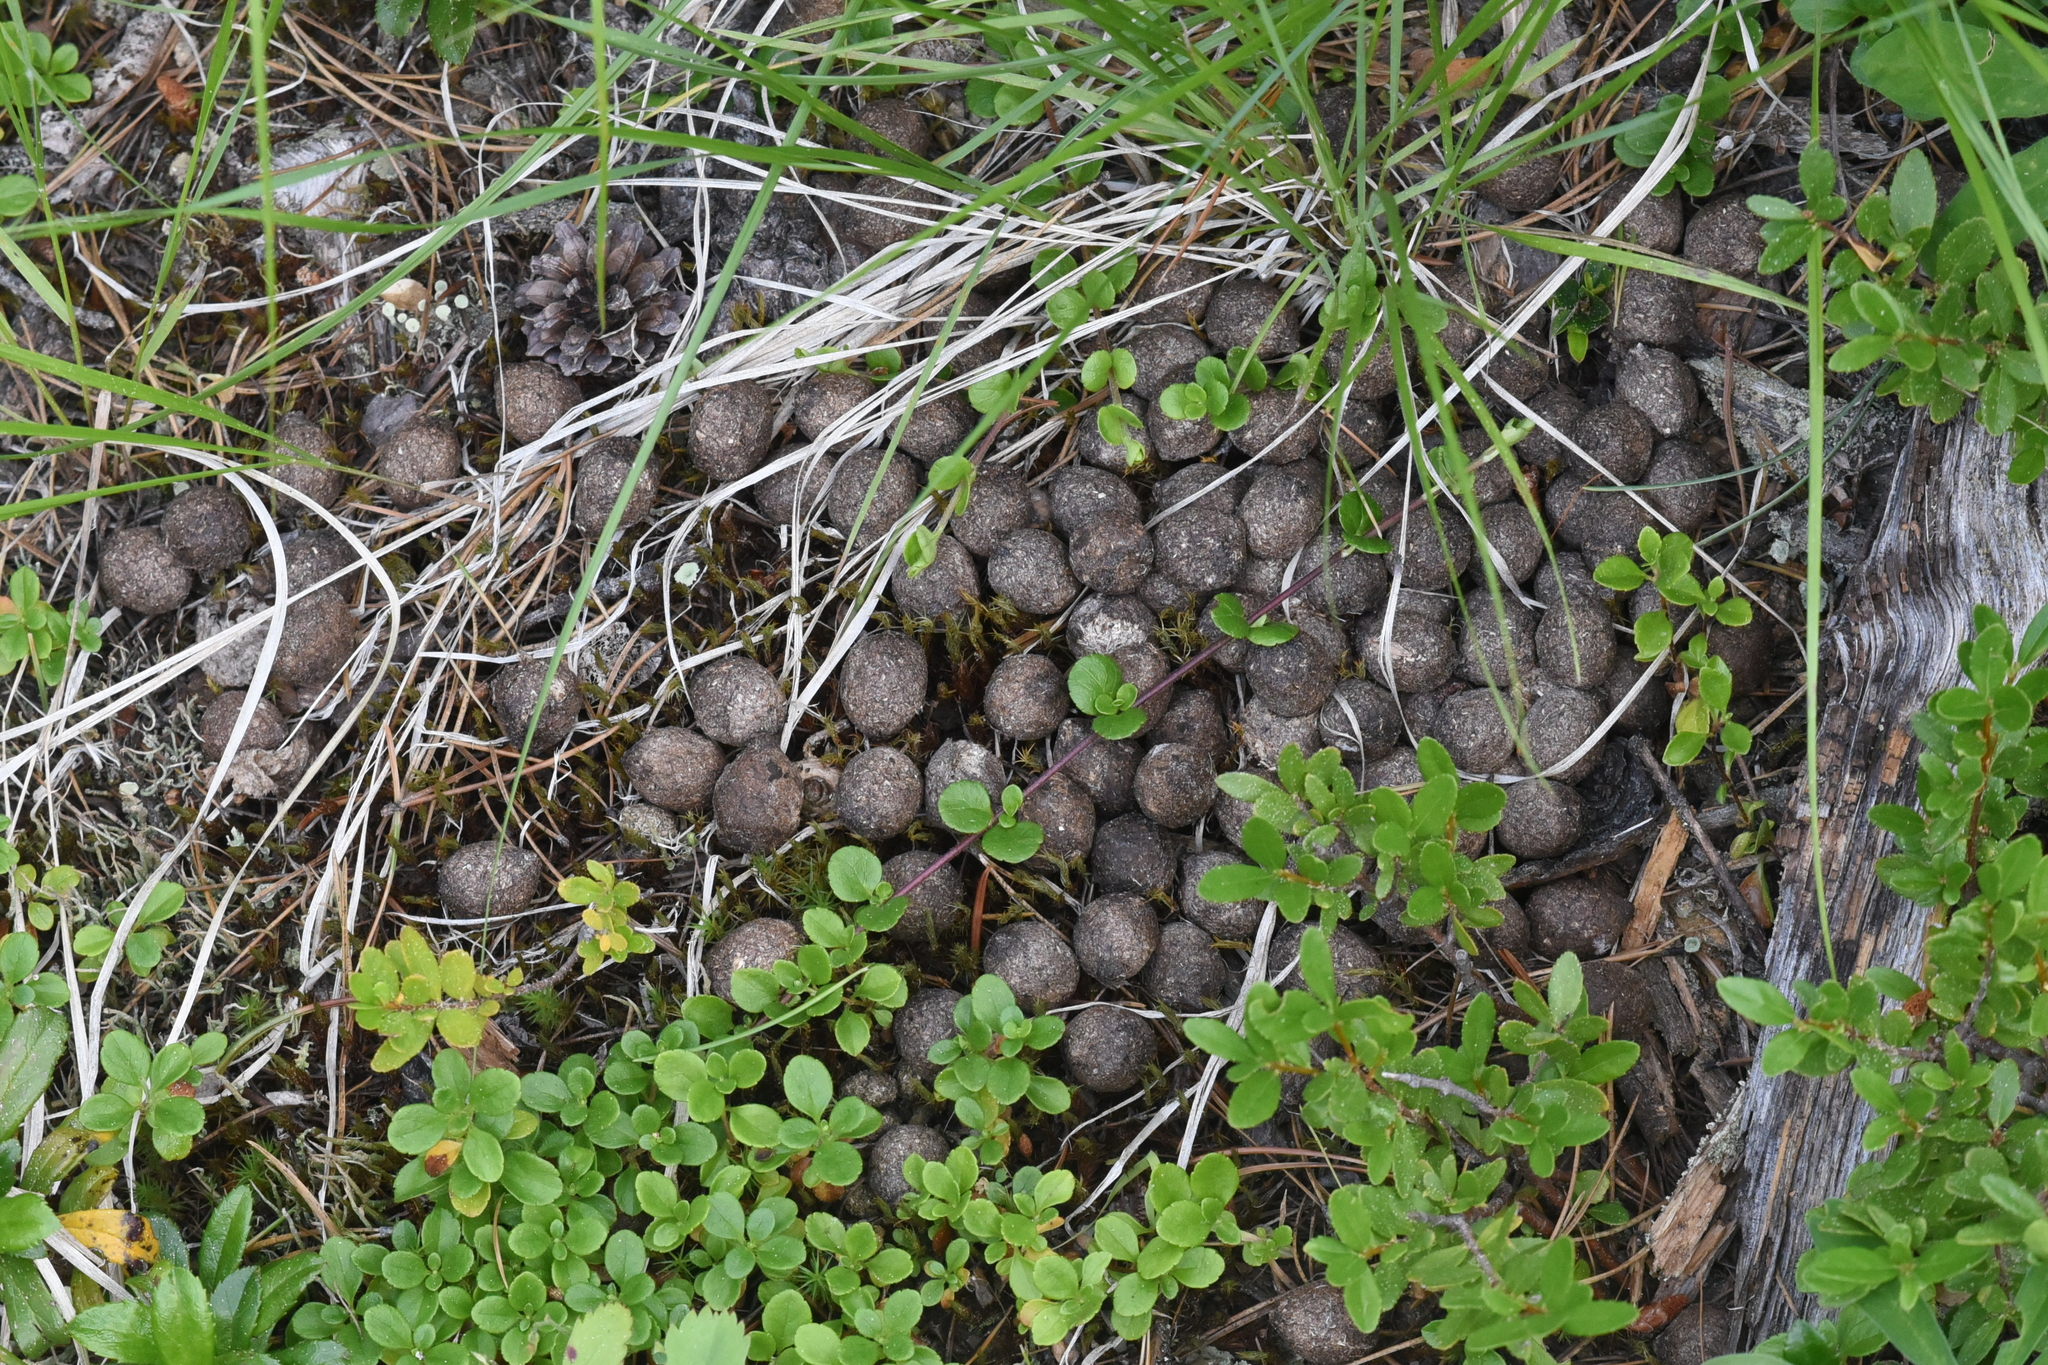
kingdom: Animalia
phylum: Chordata
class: Mammalia
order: Artiodactyla
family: Cervidae
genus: Alces
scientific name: Alces alces
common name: Moose
